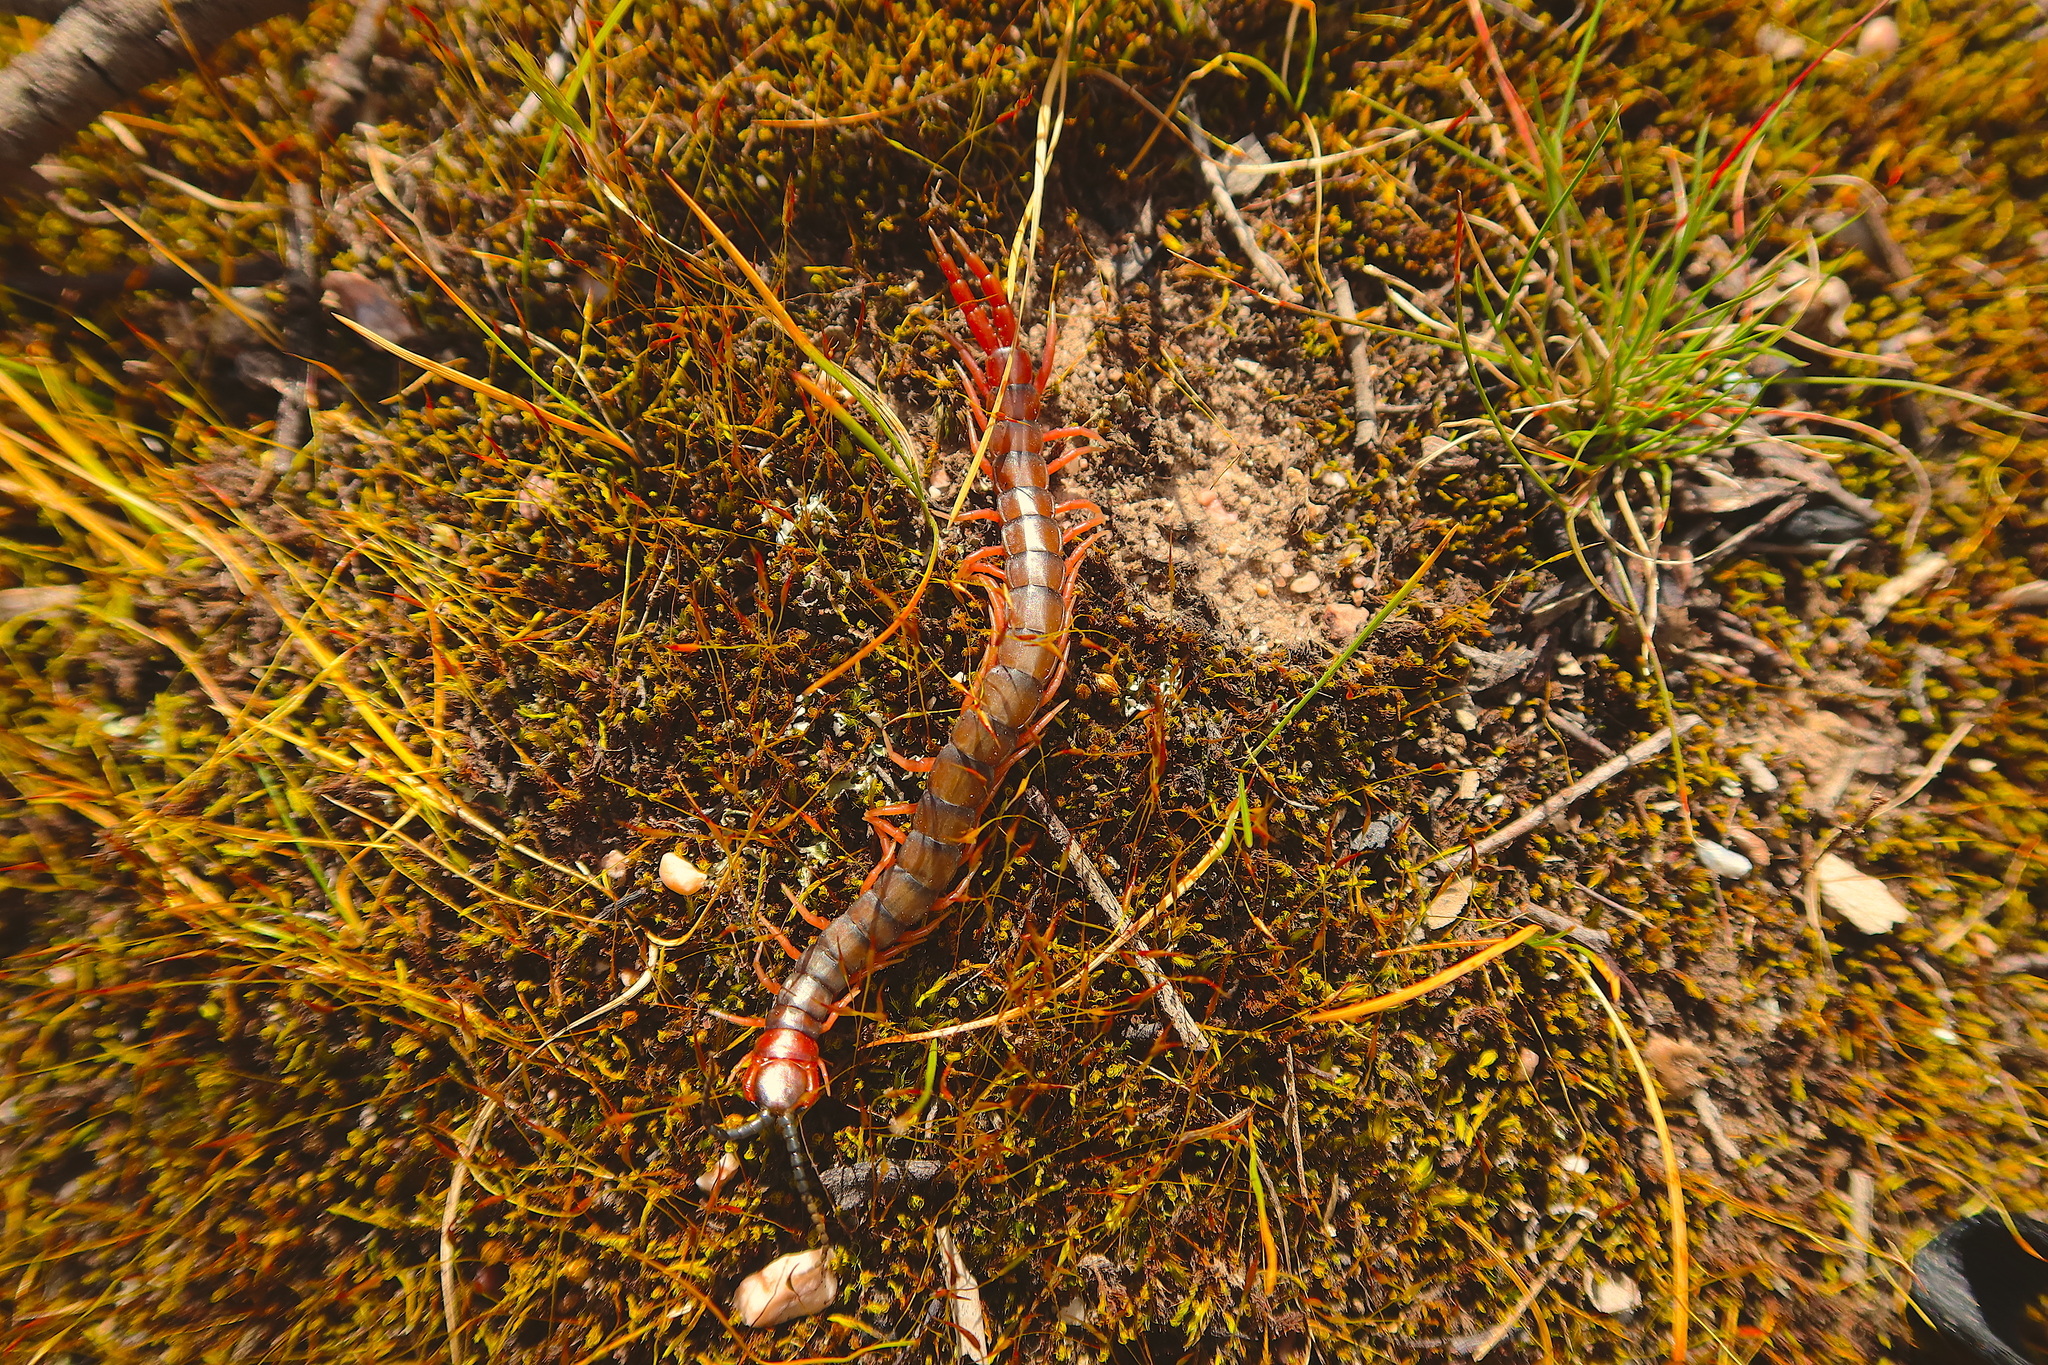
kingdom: Animalia
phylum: Arthropoda
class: Chilopoda
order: Scolopendromorpha
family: Scolopendridae
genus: Cormocephalus
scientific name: Cormocephalus aurantiipes
